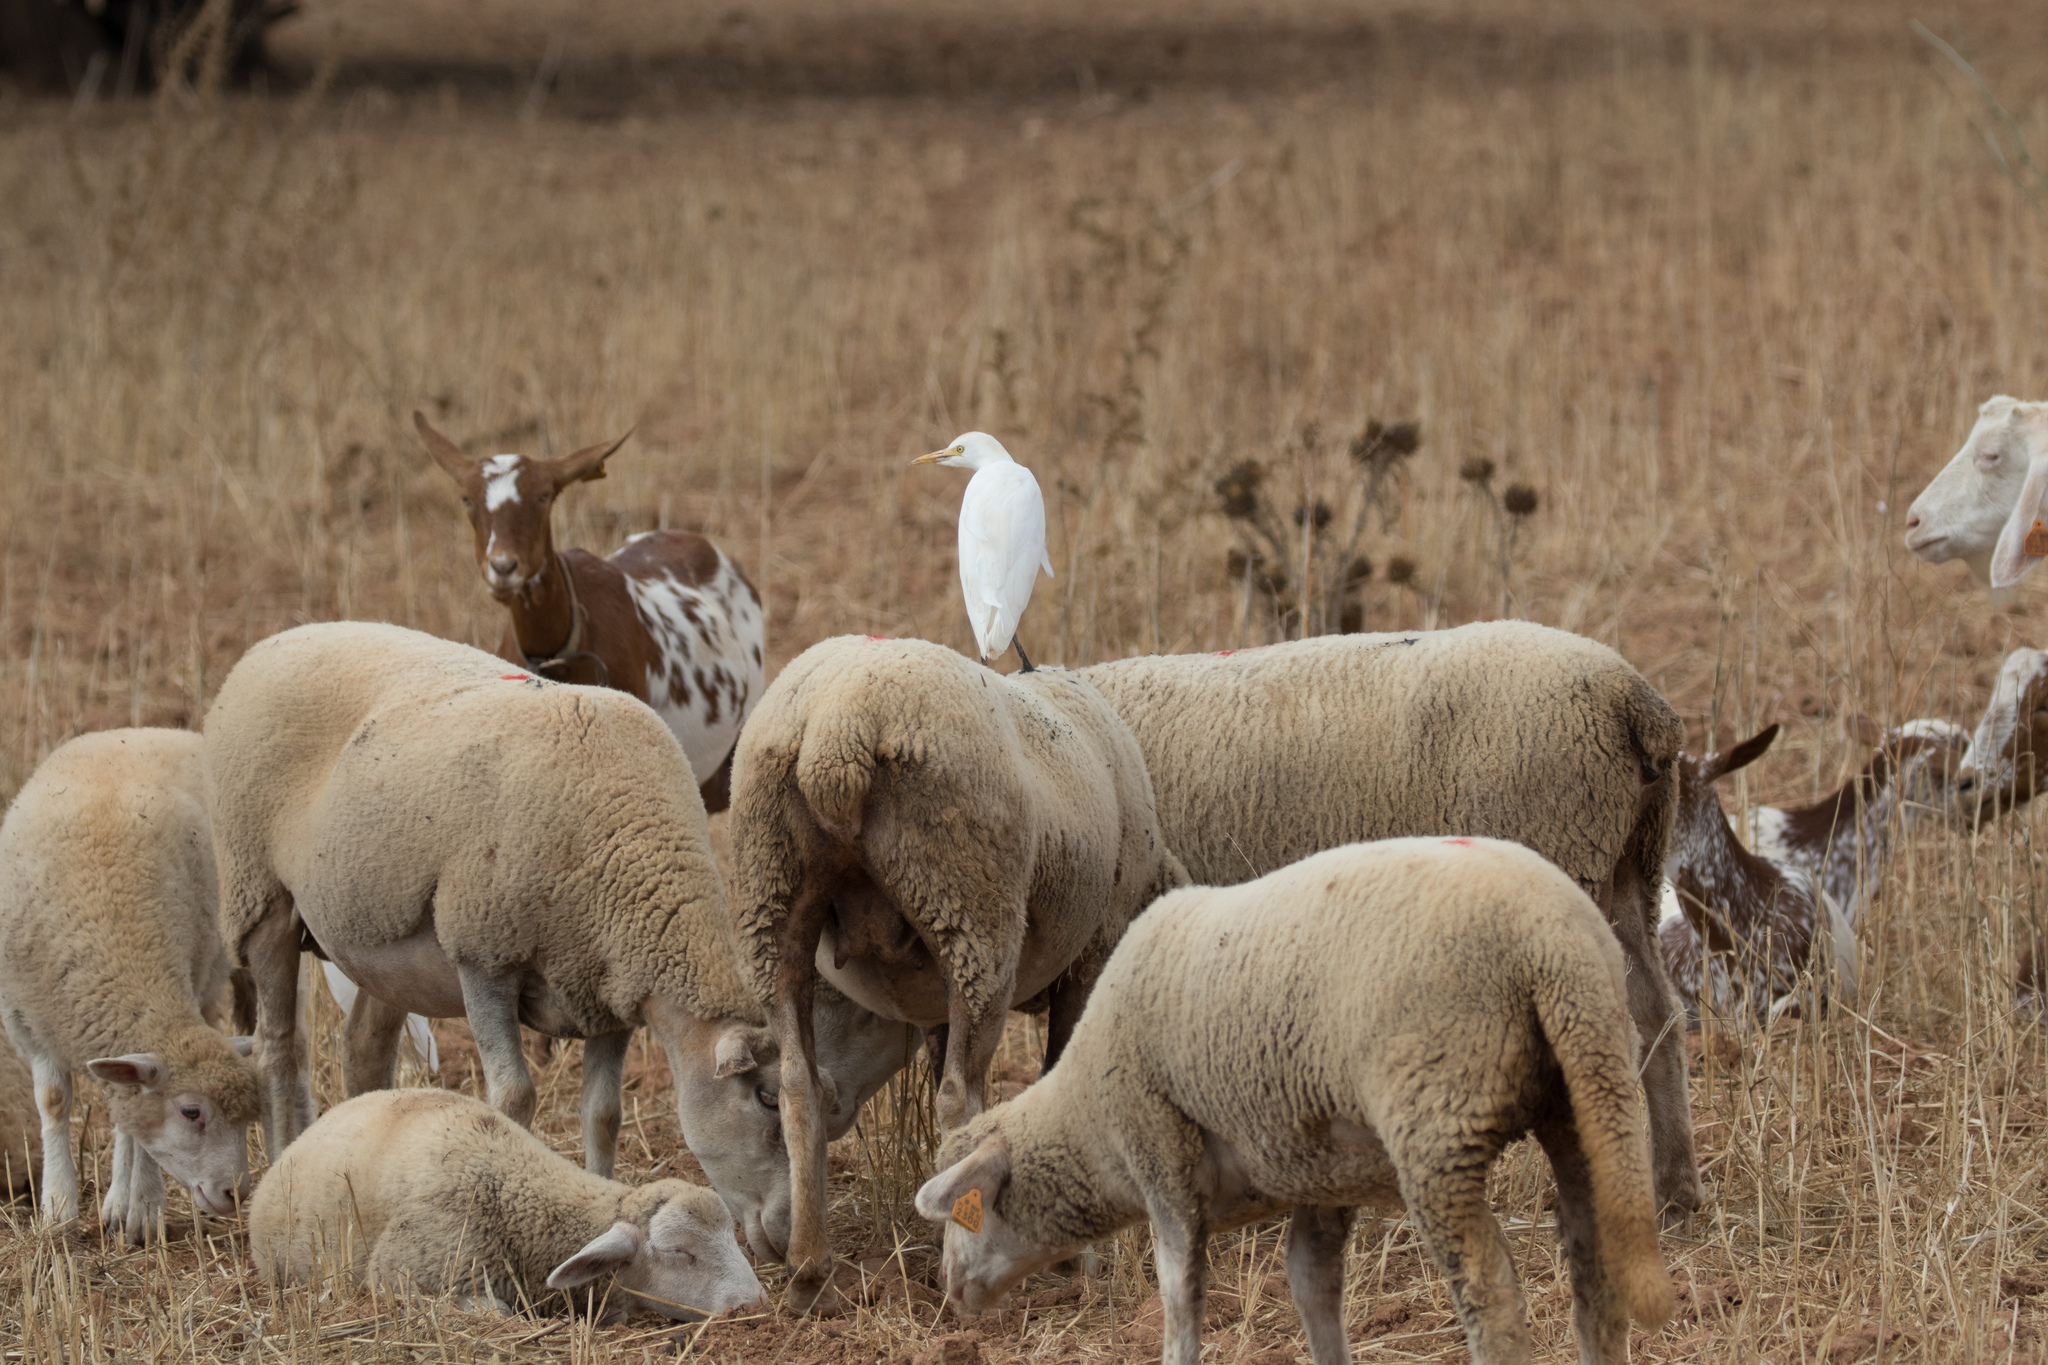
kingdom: Animalia
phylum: Chordata
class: Aves
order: Pelecaniformes
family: Ardeidae
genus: Bubulcus
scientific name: Bubulcus ibis
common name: Cattle egret
